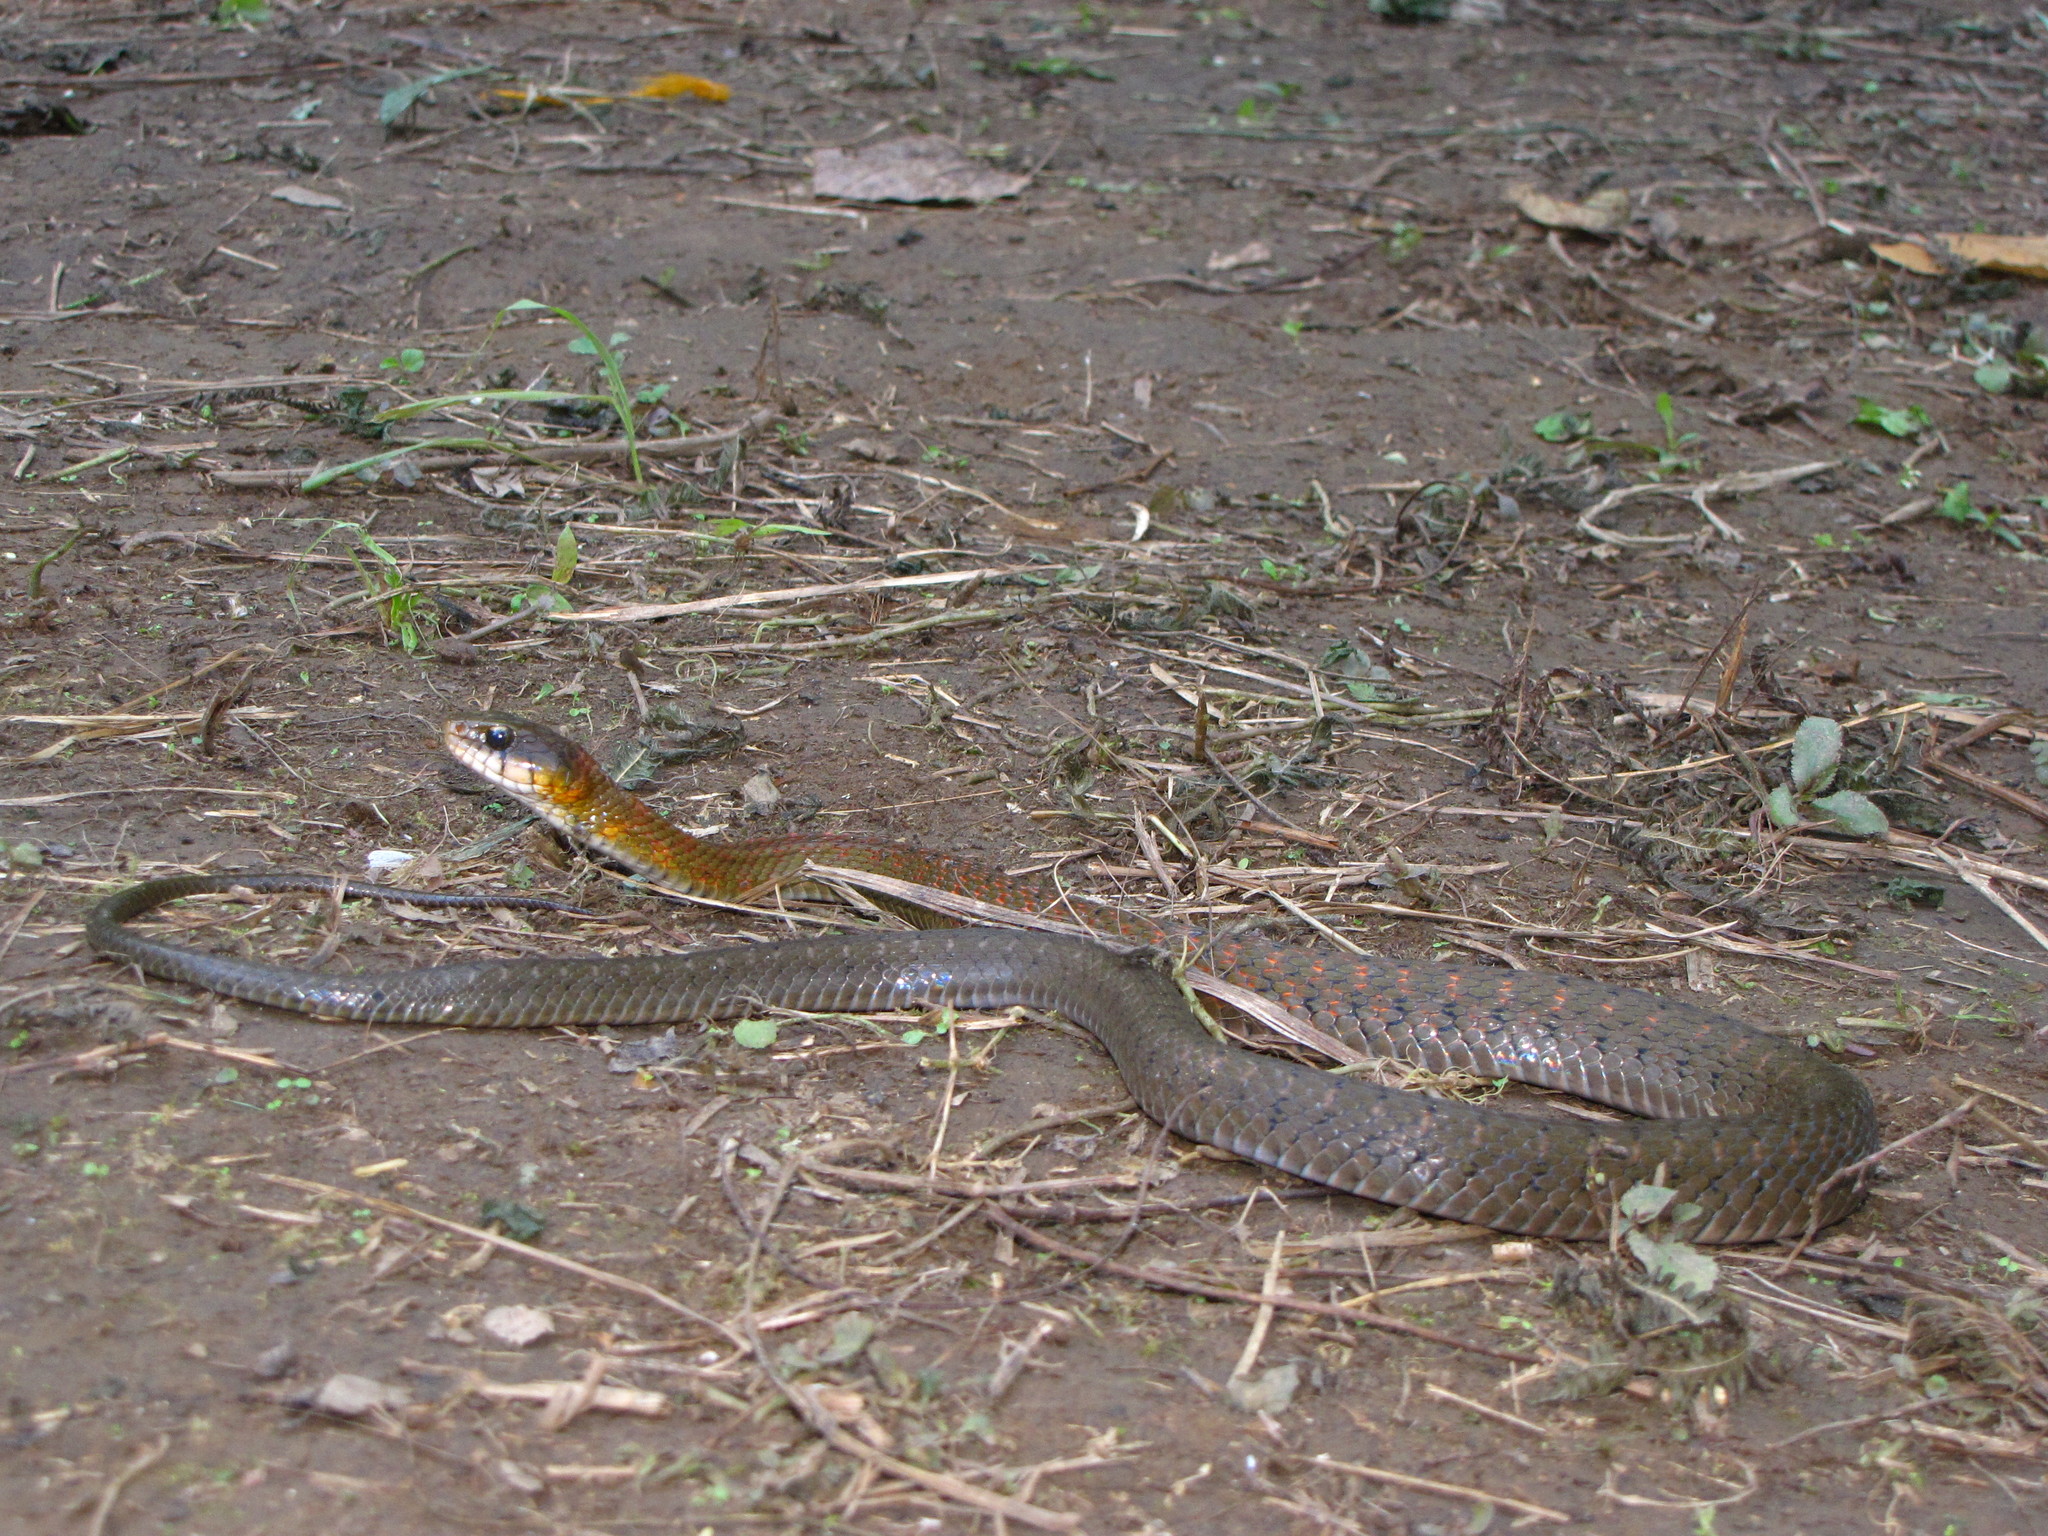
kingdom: Animalia
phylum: Chordata
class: Squamata
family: Colubridae
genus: Rhabdophis
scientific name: Rhabdophis himalayanus
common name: Orange-collared keelback
